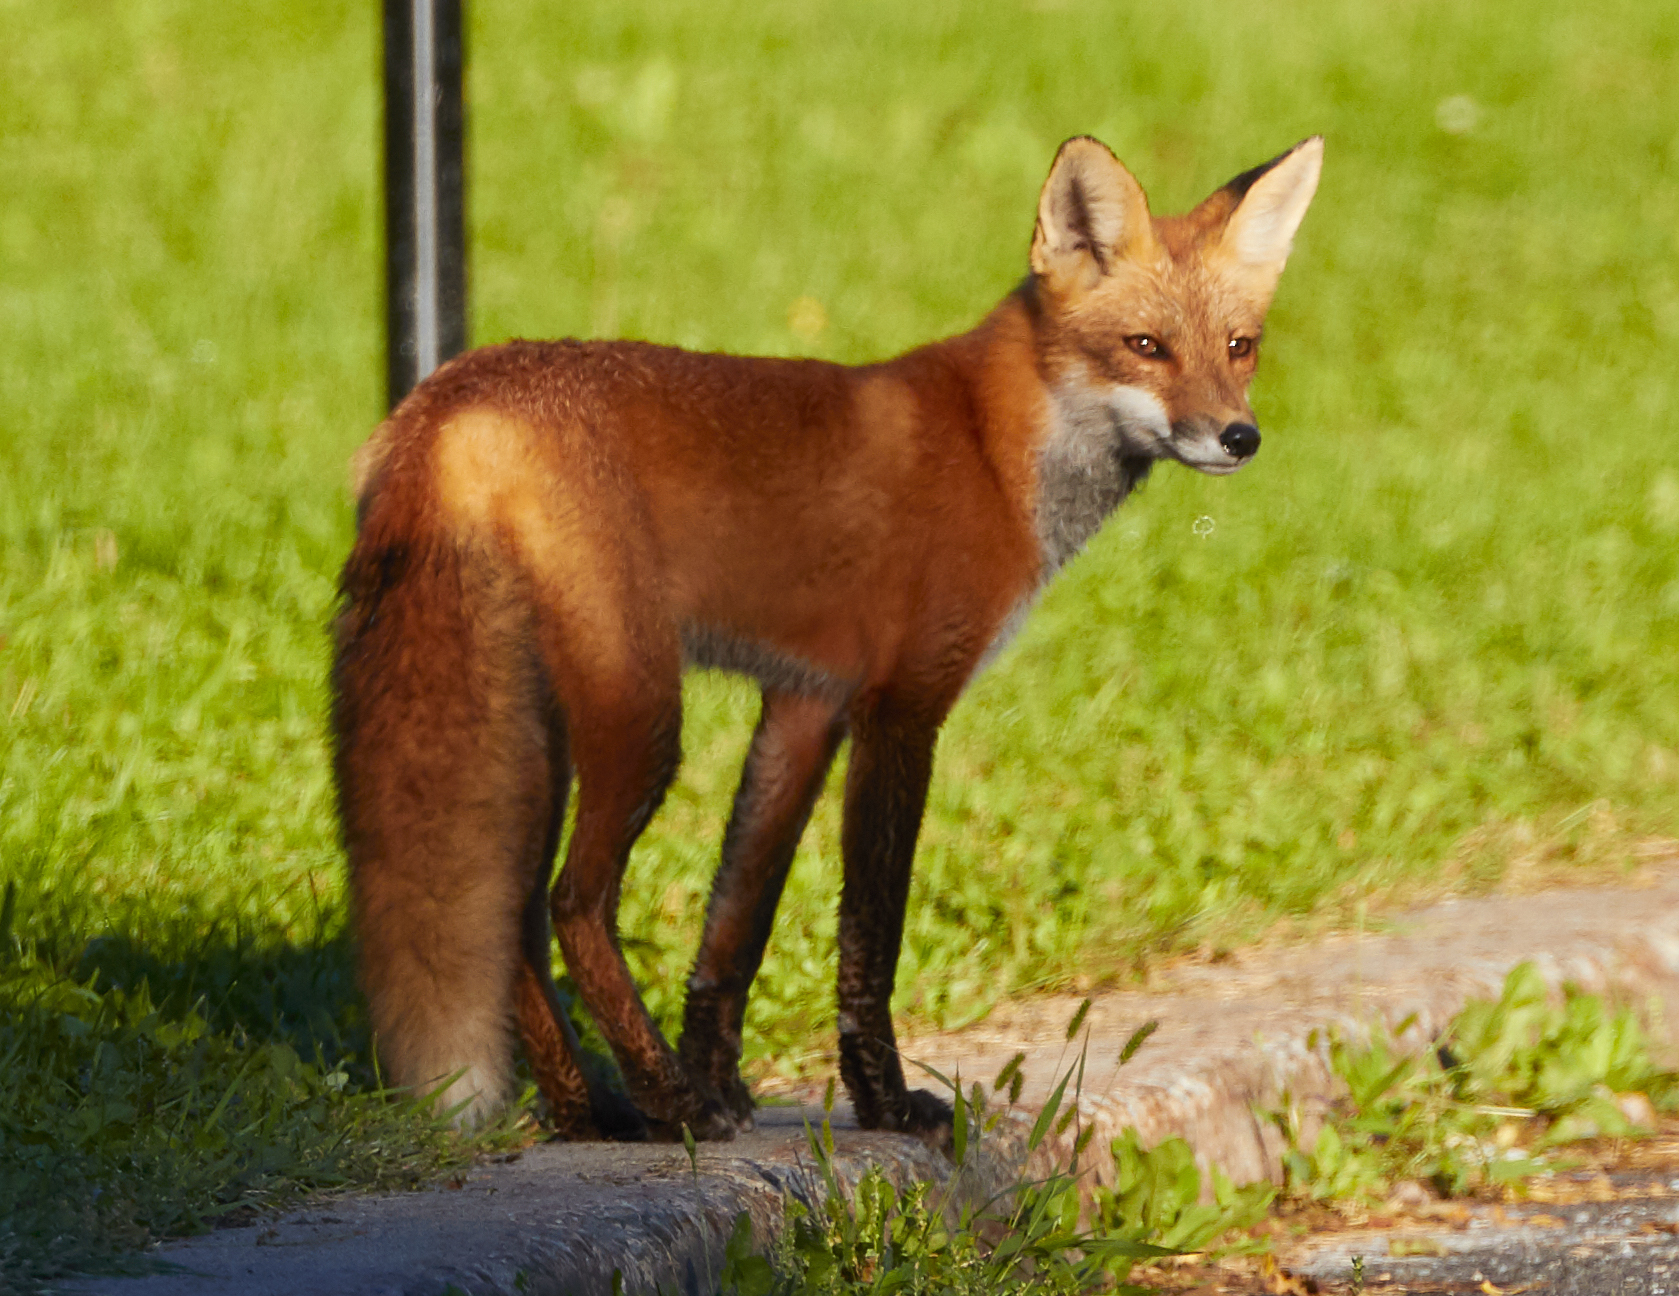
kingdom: Animalia
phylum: Chordata
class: Mammalia
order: Carnivora
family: Canidae
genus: Vulpes
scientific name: Vulpes vulpes
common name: Red fox
